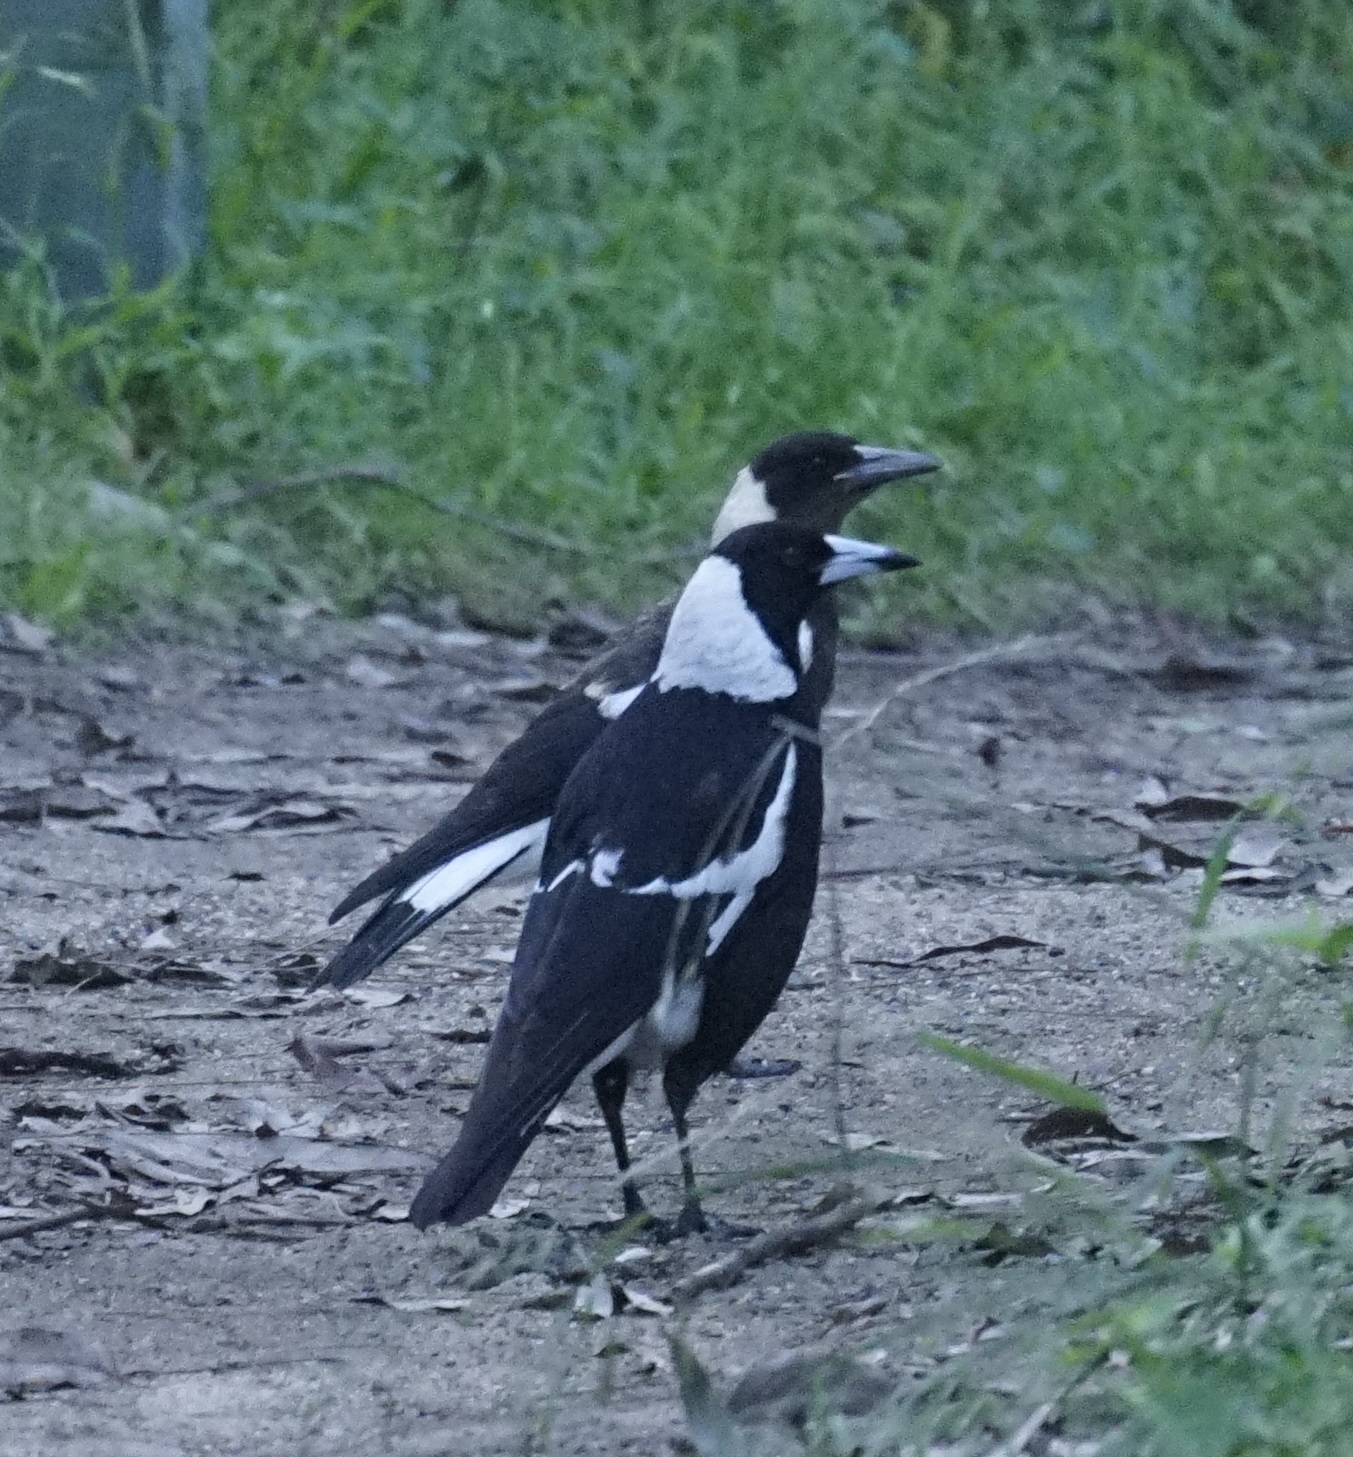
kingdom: Animalia
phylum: Chordata
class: Aves
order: Passeriformes
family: Cracticidae
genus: Gymnorhina
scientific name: Gymnorhina tibicen
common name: Australian magpie
